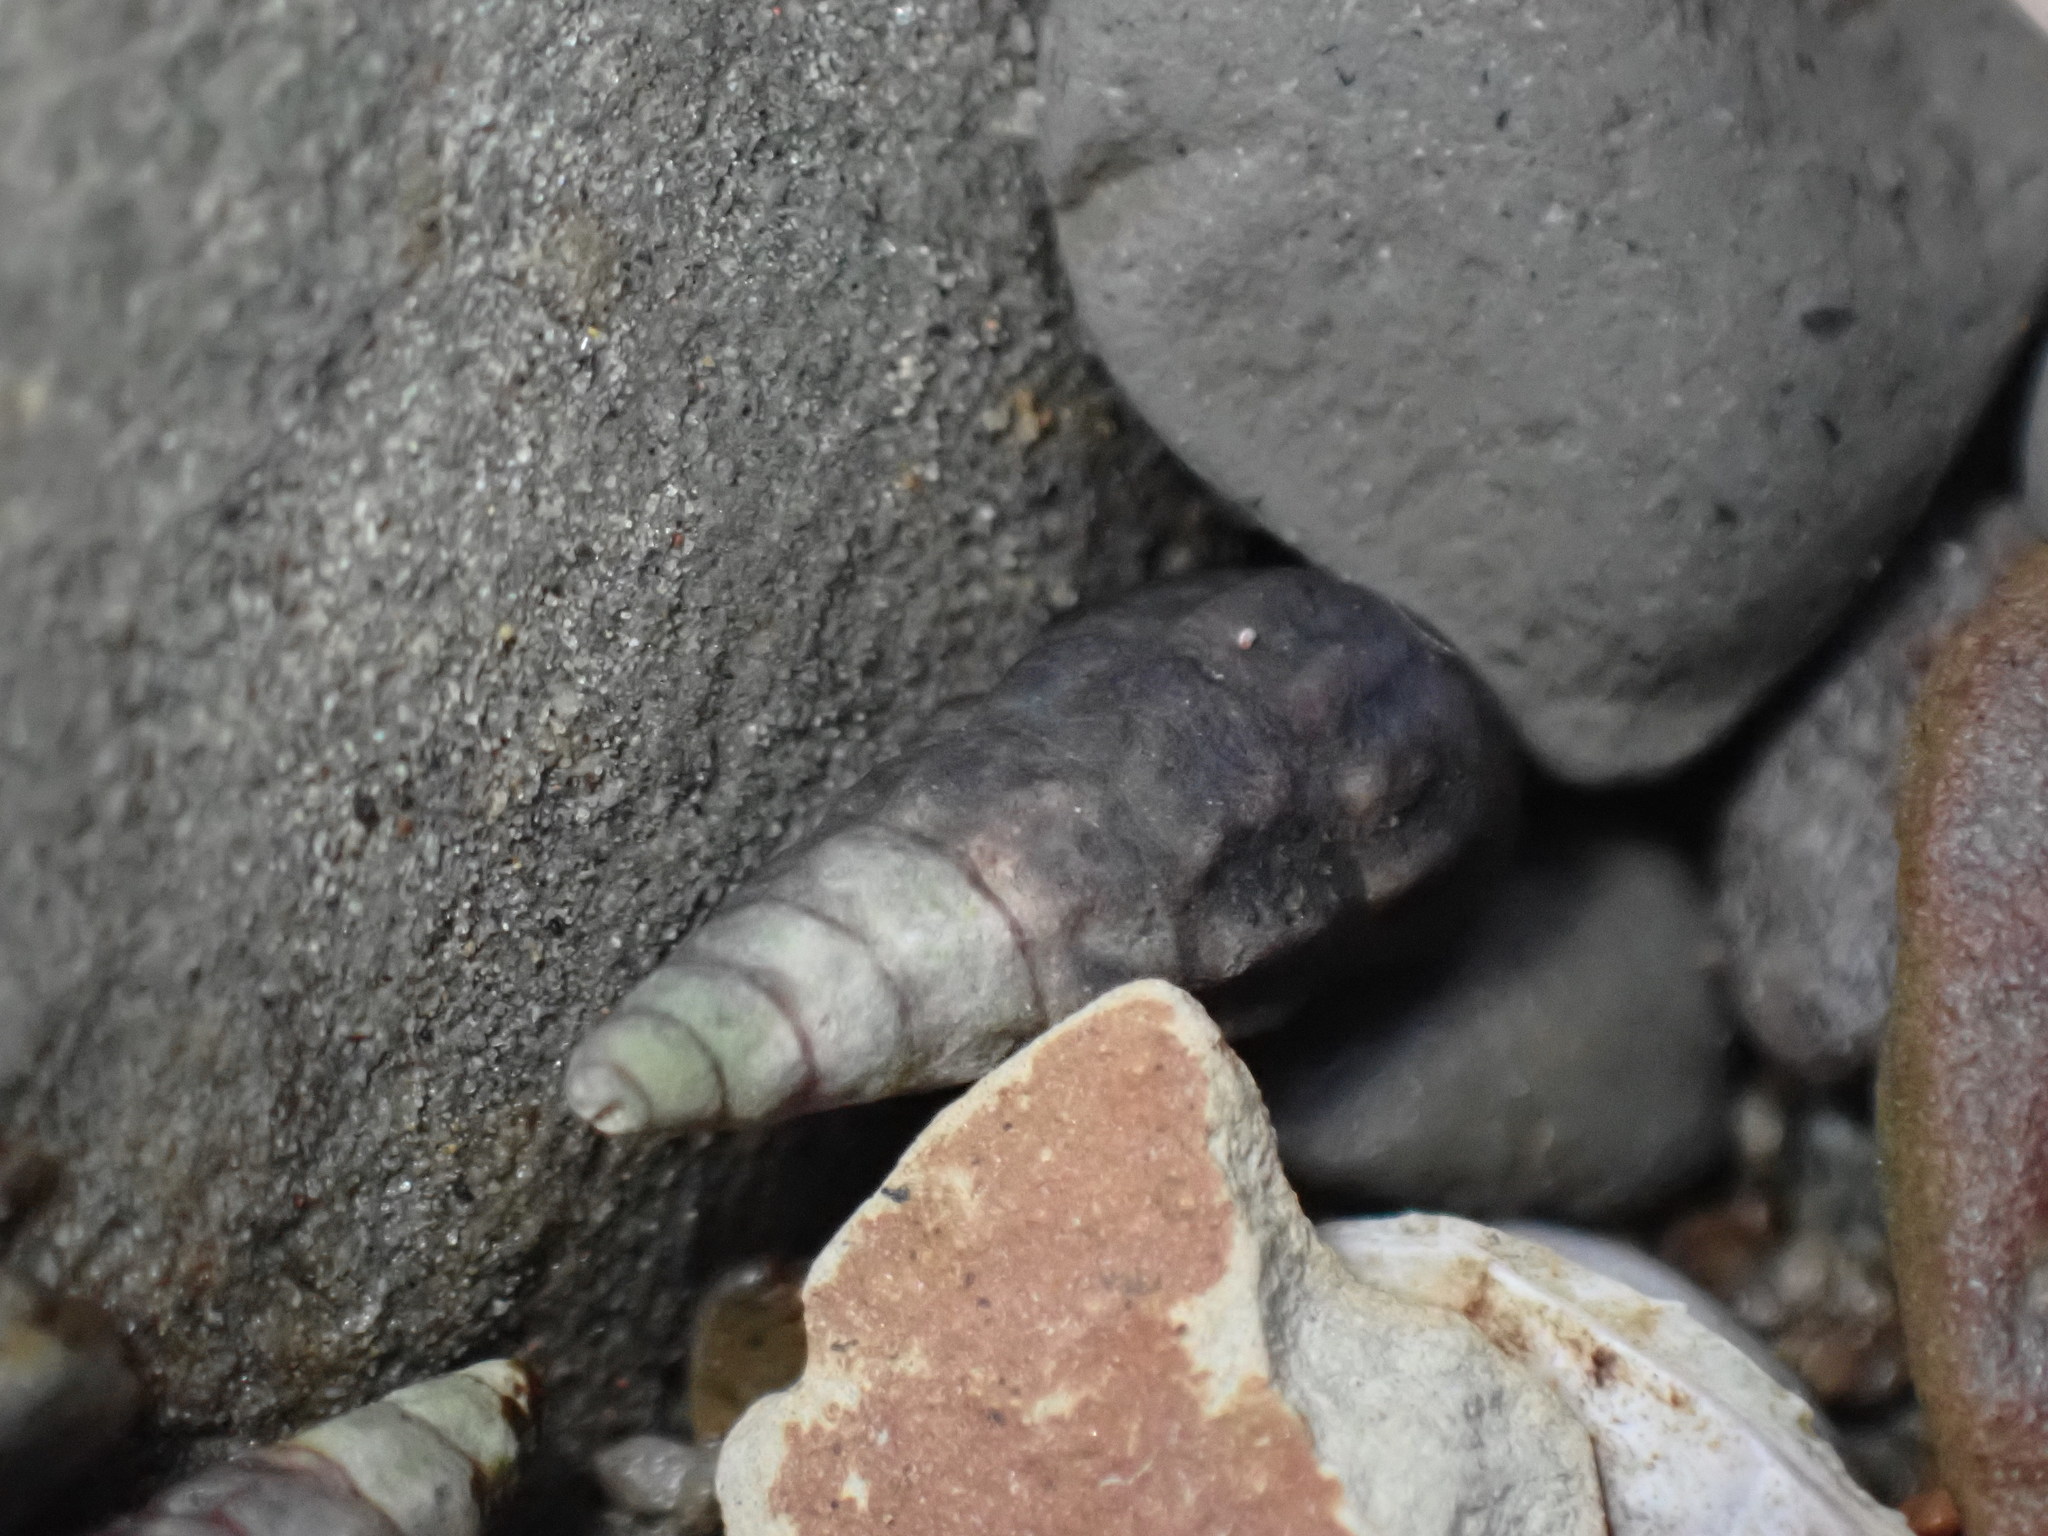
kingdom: Animalia
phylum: Mollusca
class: Gastropoda
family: Batillariidae
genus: Zeacumantus
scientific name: Zeacumantus subcarinatus
